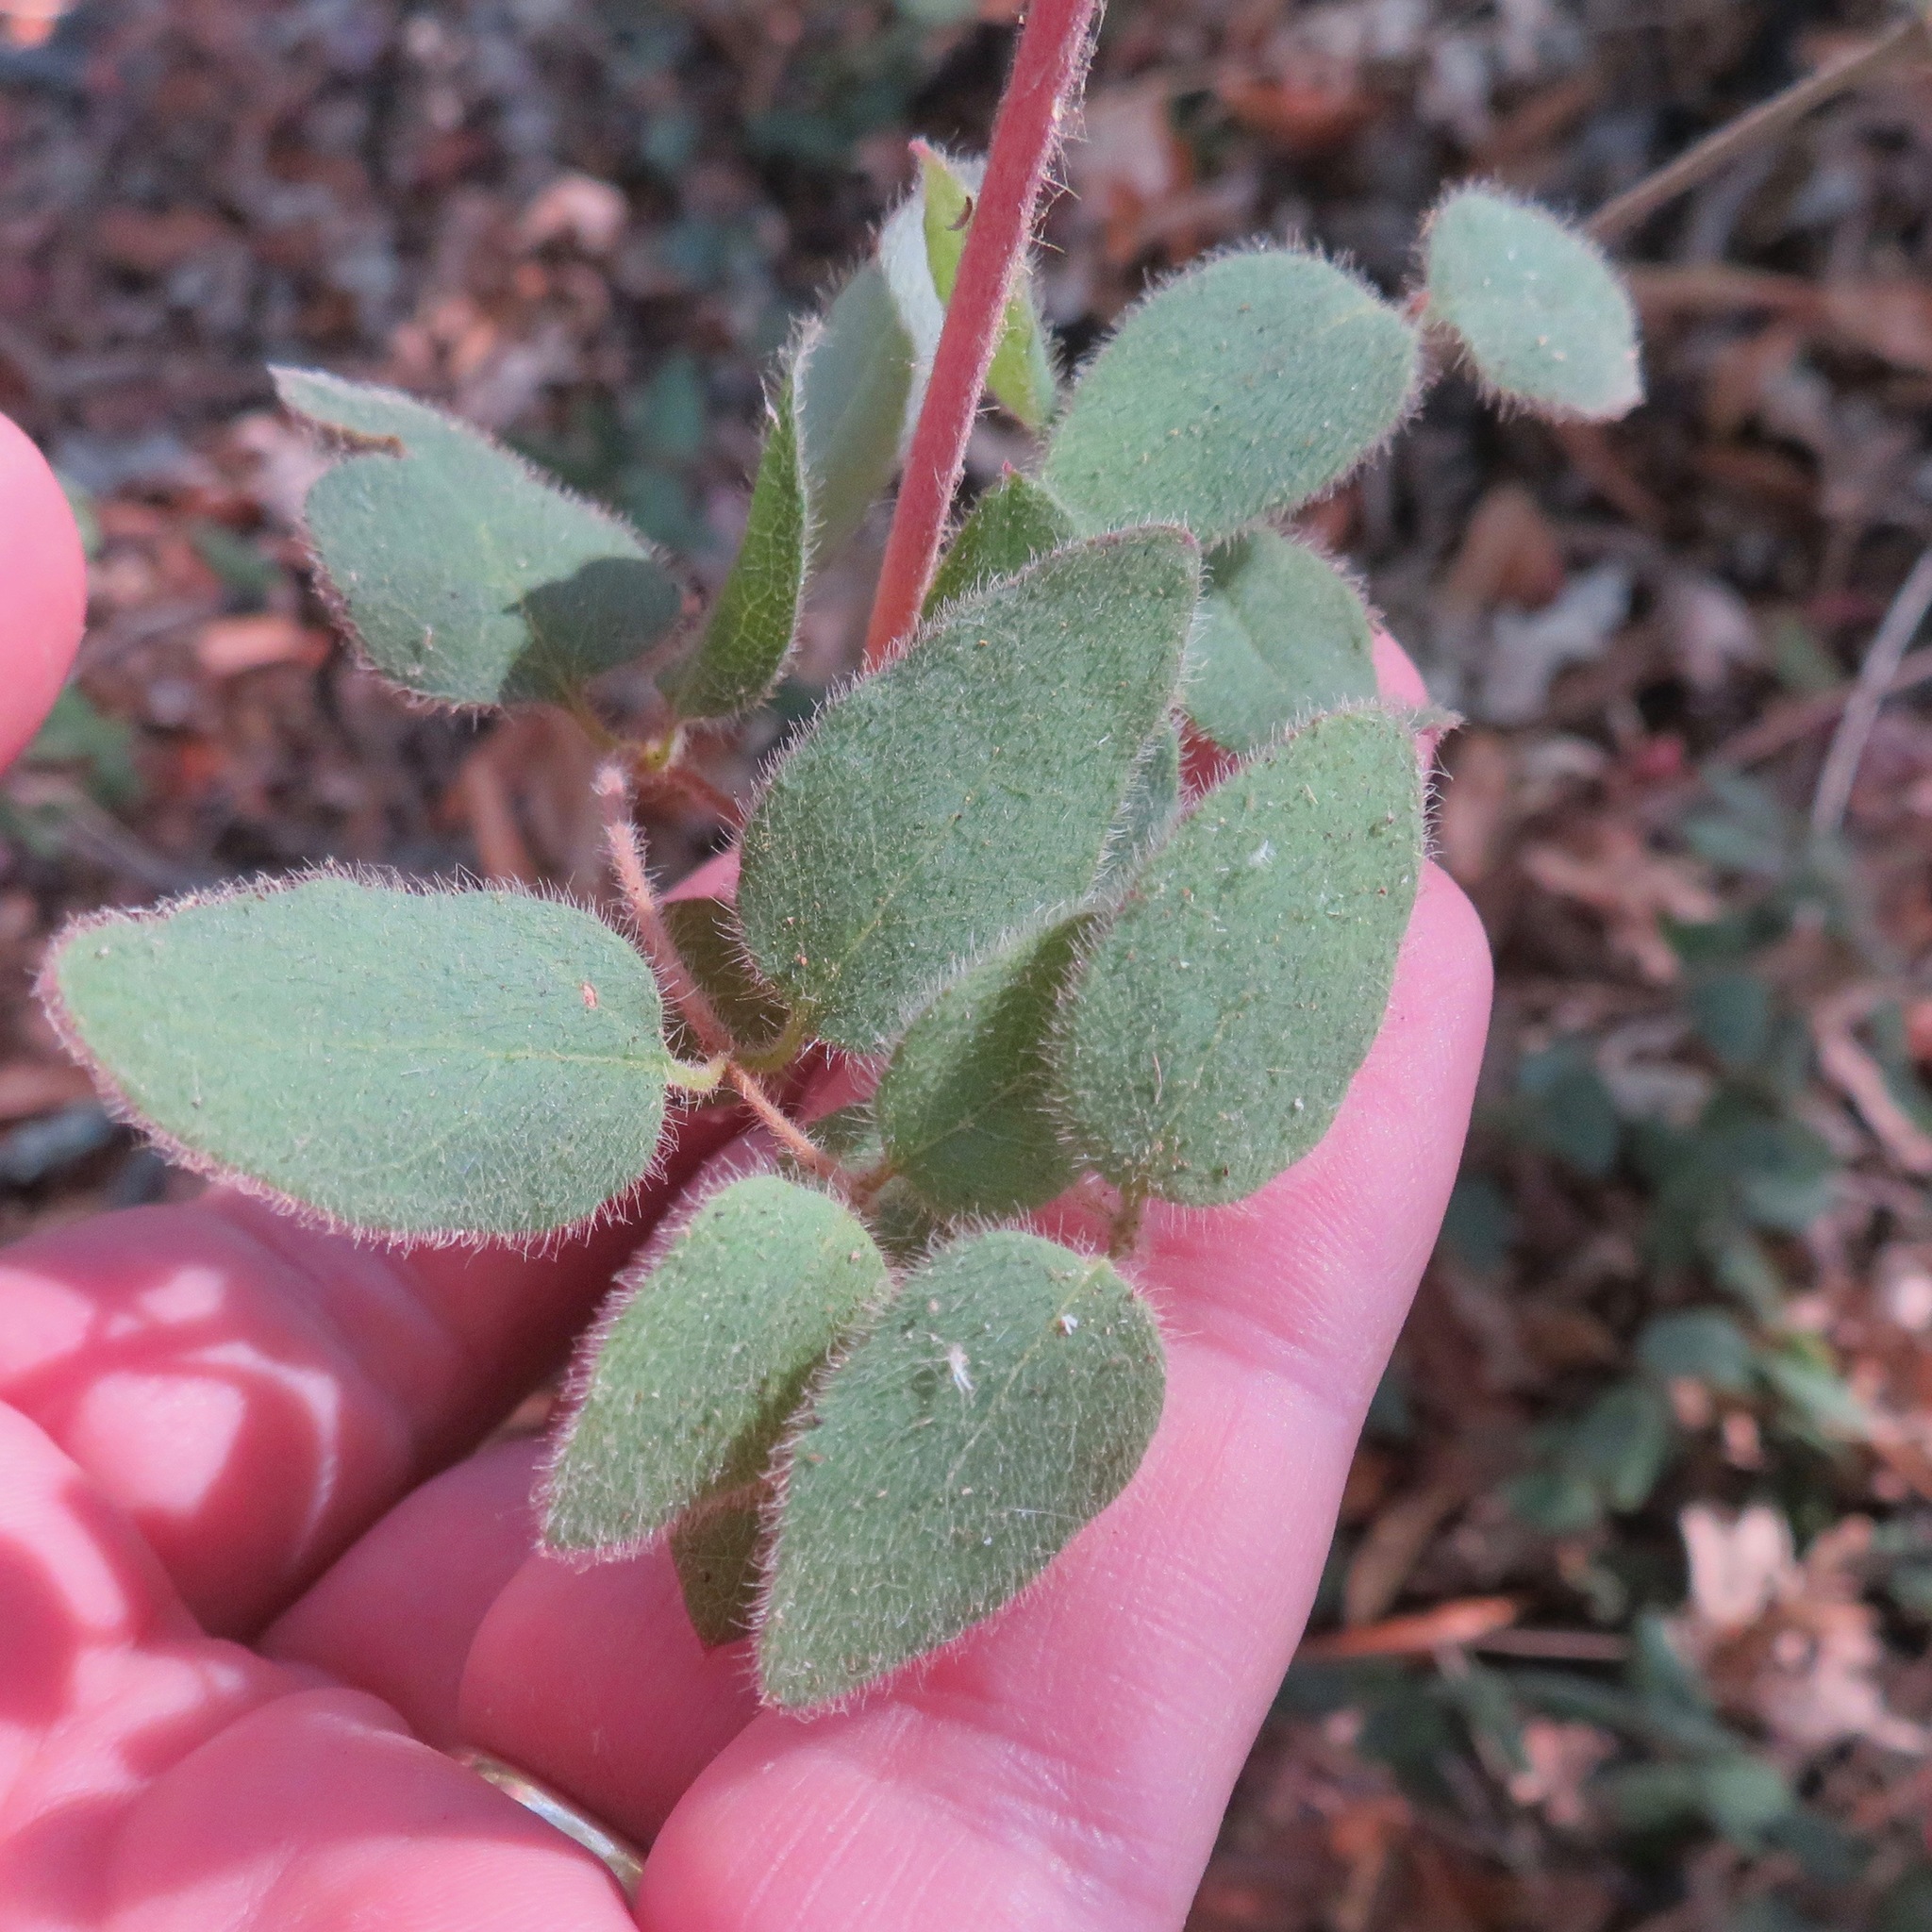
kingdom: Plantae
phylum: Tracheophyta
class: Magnoliopsida
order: Dipsacales
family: Caprifoliaceae
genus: Lonicera
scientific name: Lonicera hispidula
